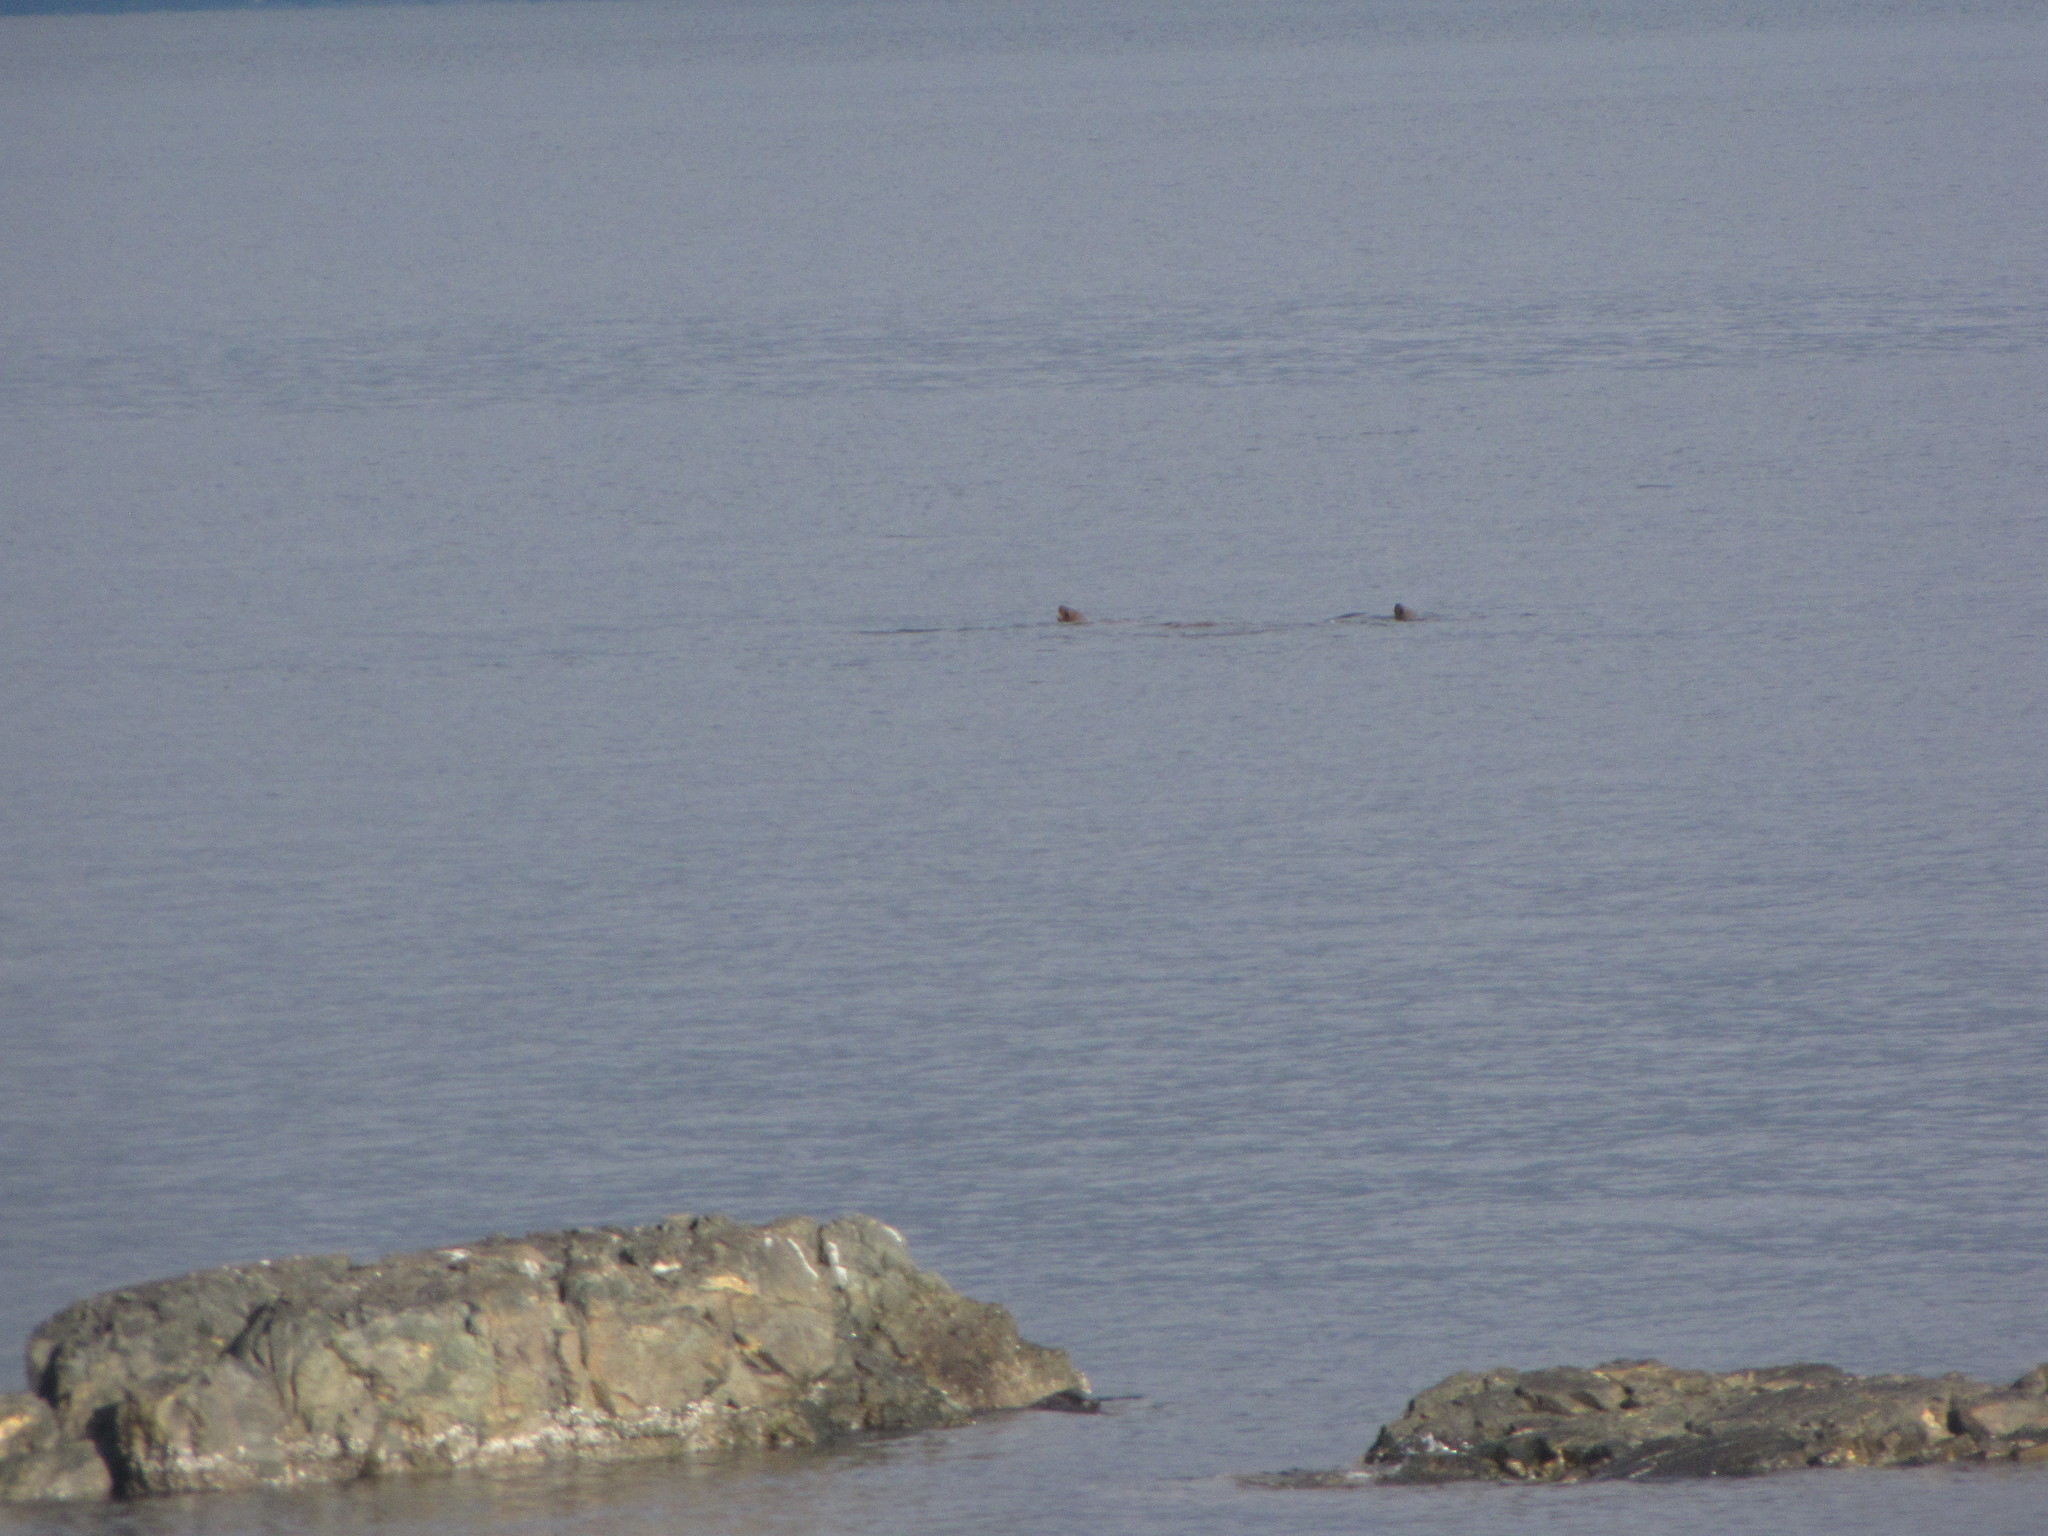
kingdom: Animalia
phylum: Chordata
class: Mammalia
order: Carnivora
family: Otariidae
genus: Eumetopias
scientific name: Eumetopias jubatus
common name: Steller sea lion
